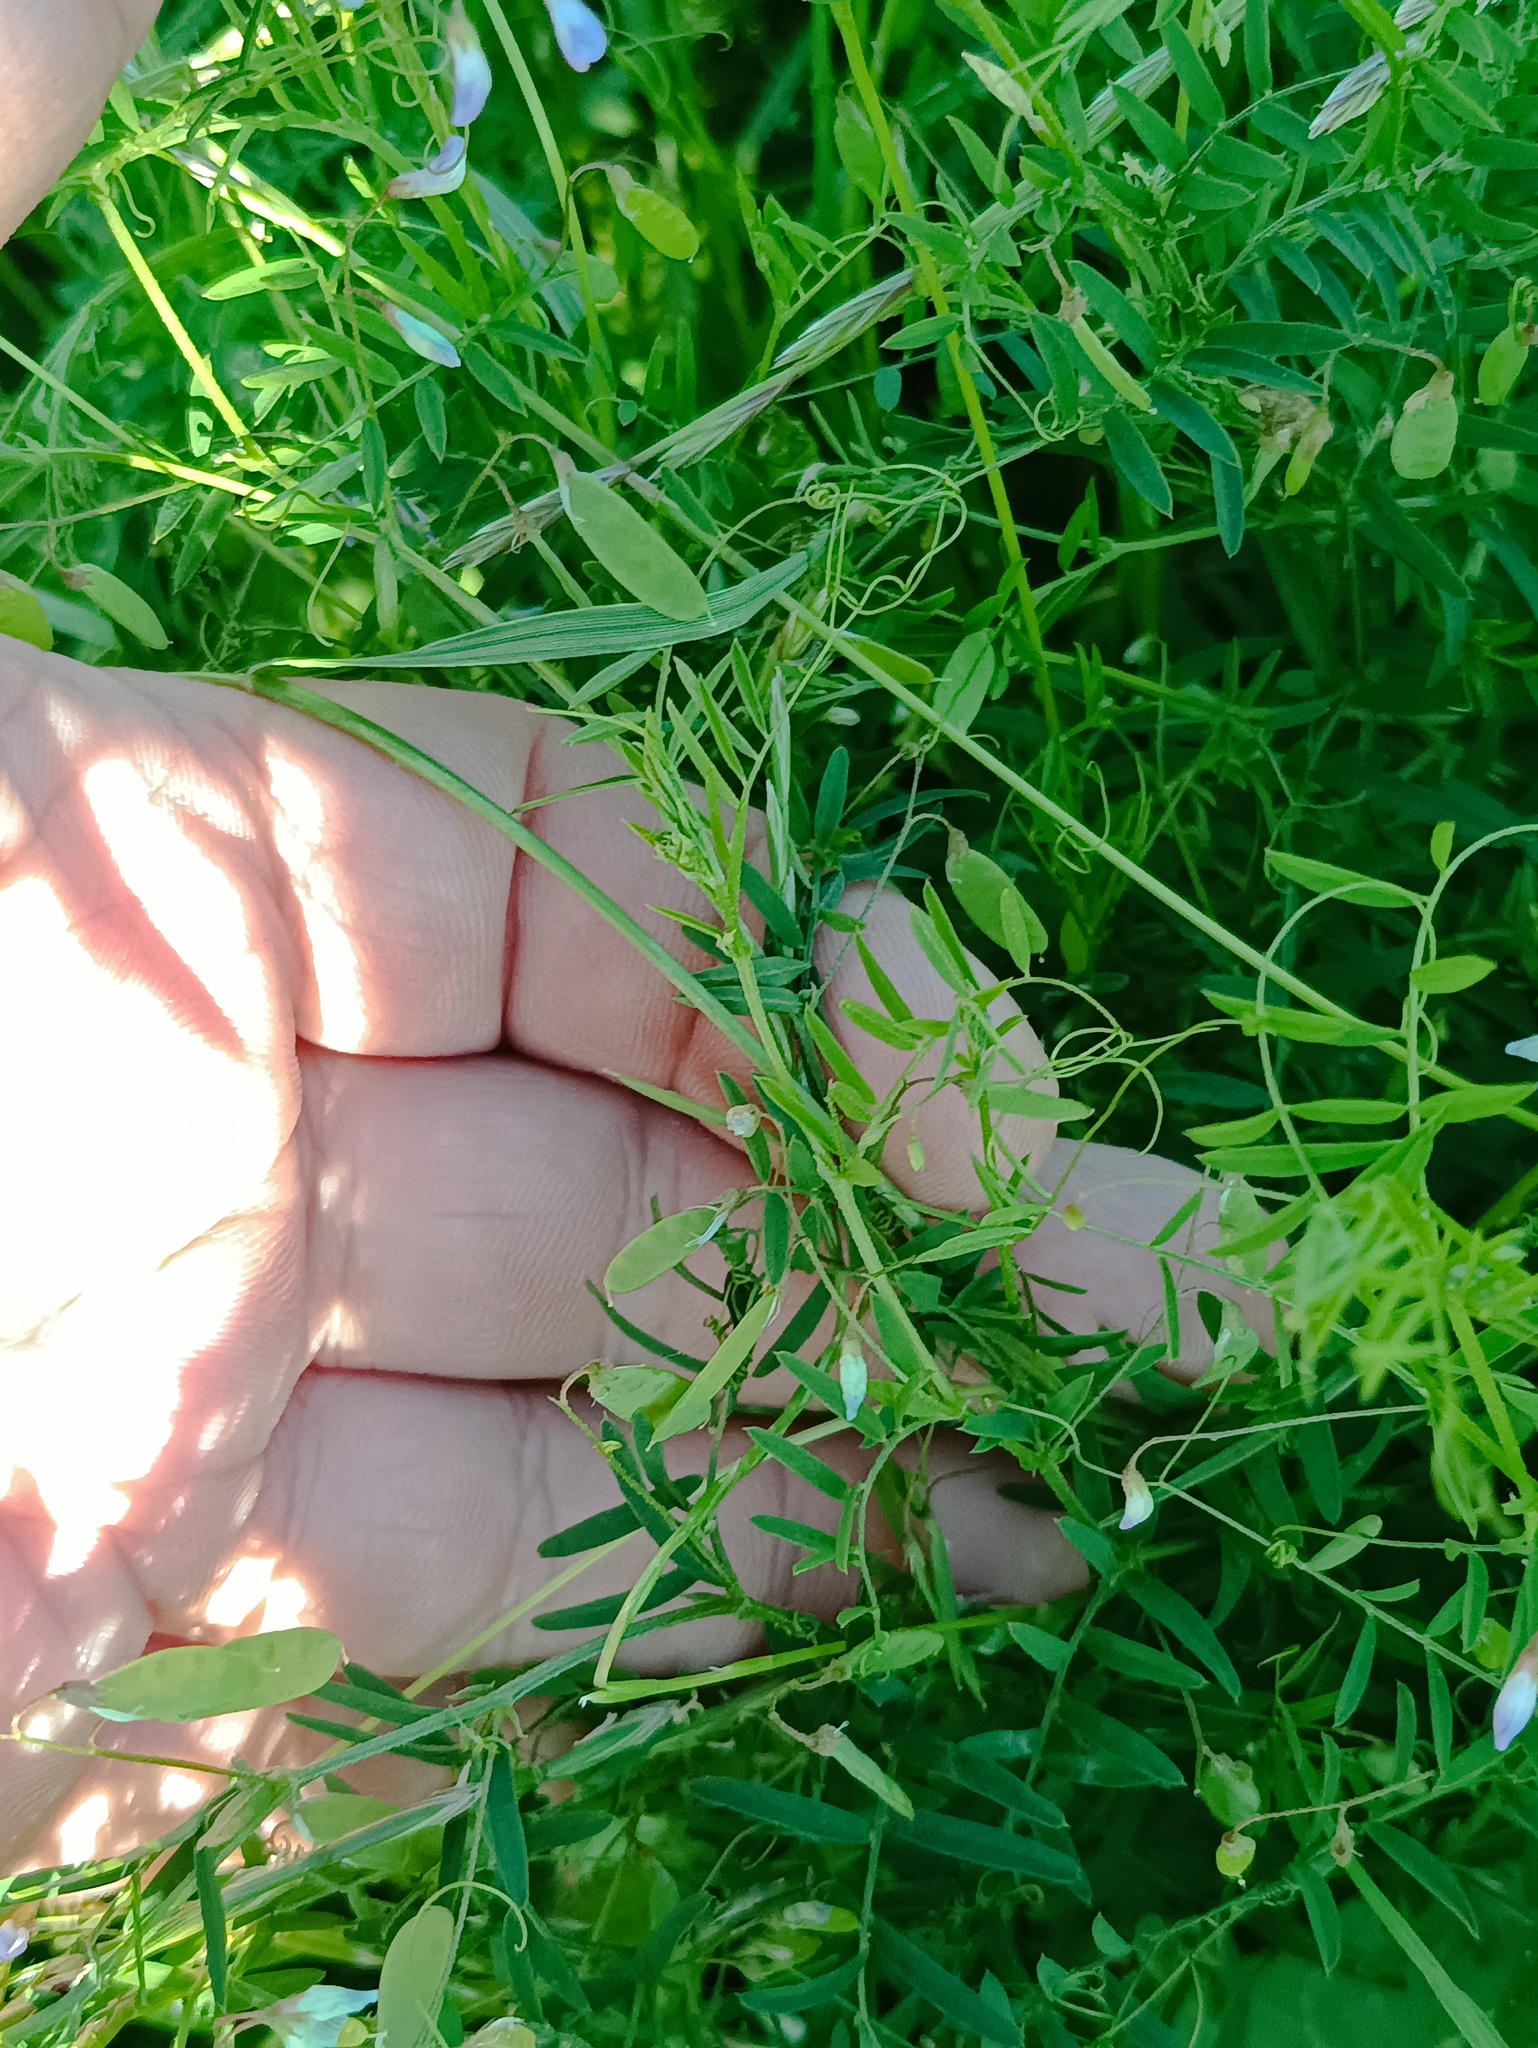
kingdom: Plantae
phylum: Tracheophyta
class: Magnoliopsida
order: Fabales
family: Fabaceae
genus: Vicia
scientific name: Vicia tetrasperma
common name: Smooth tare
